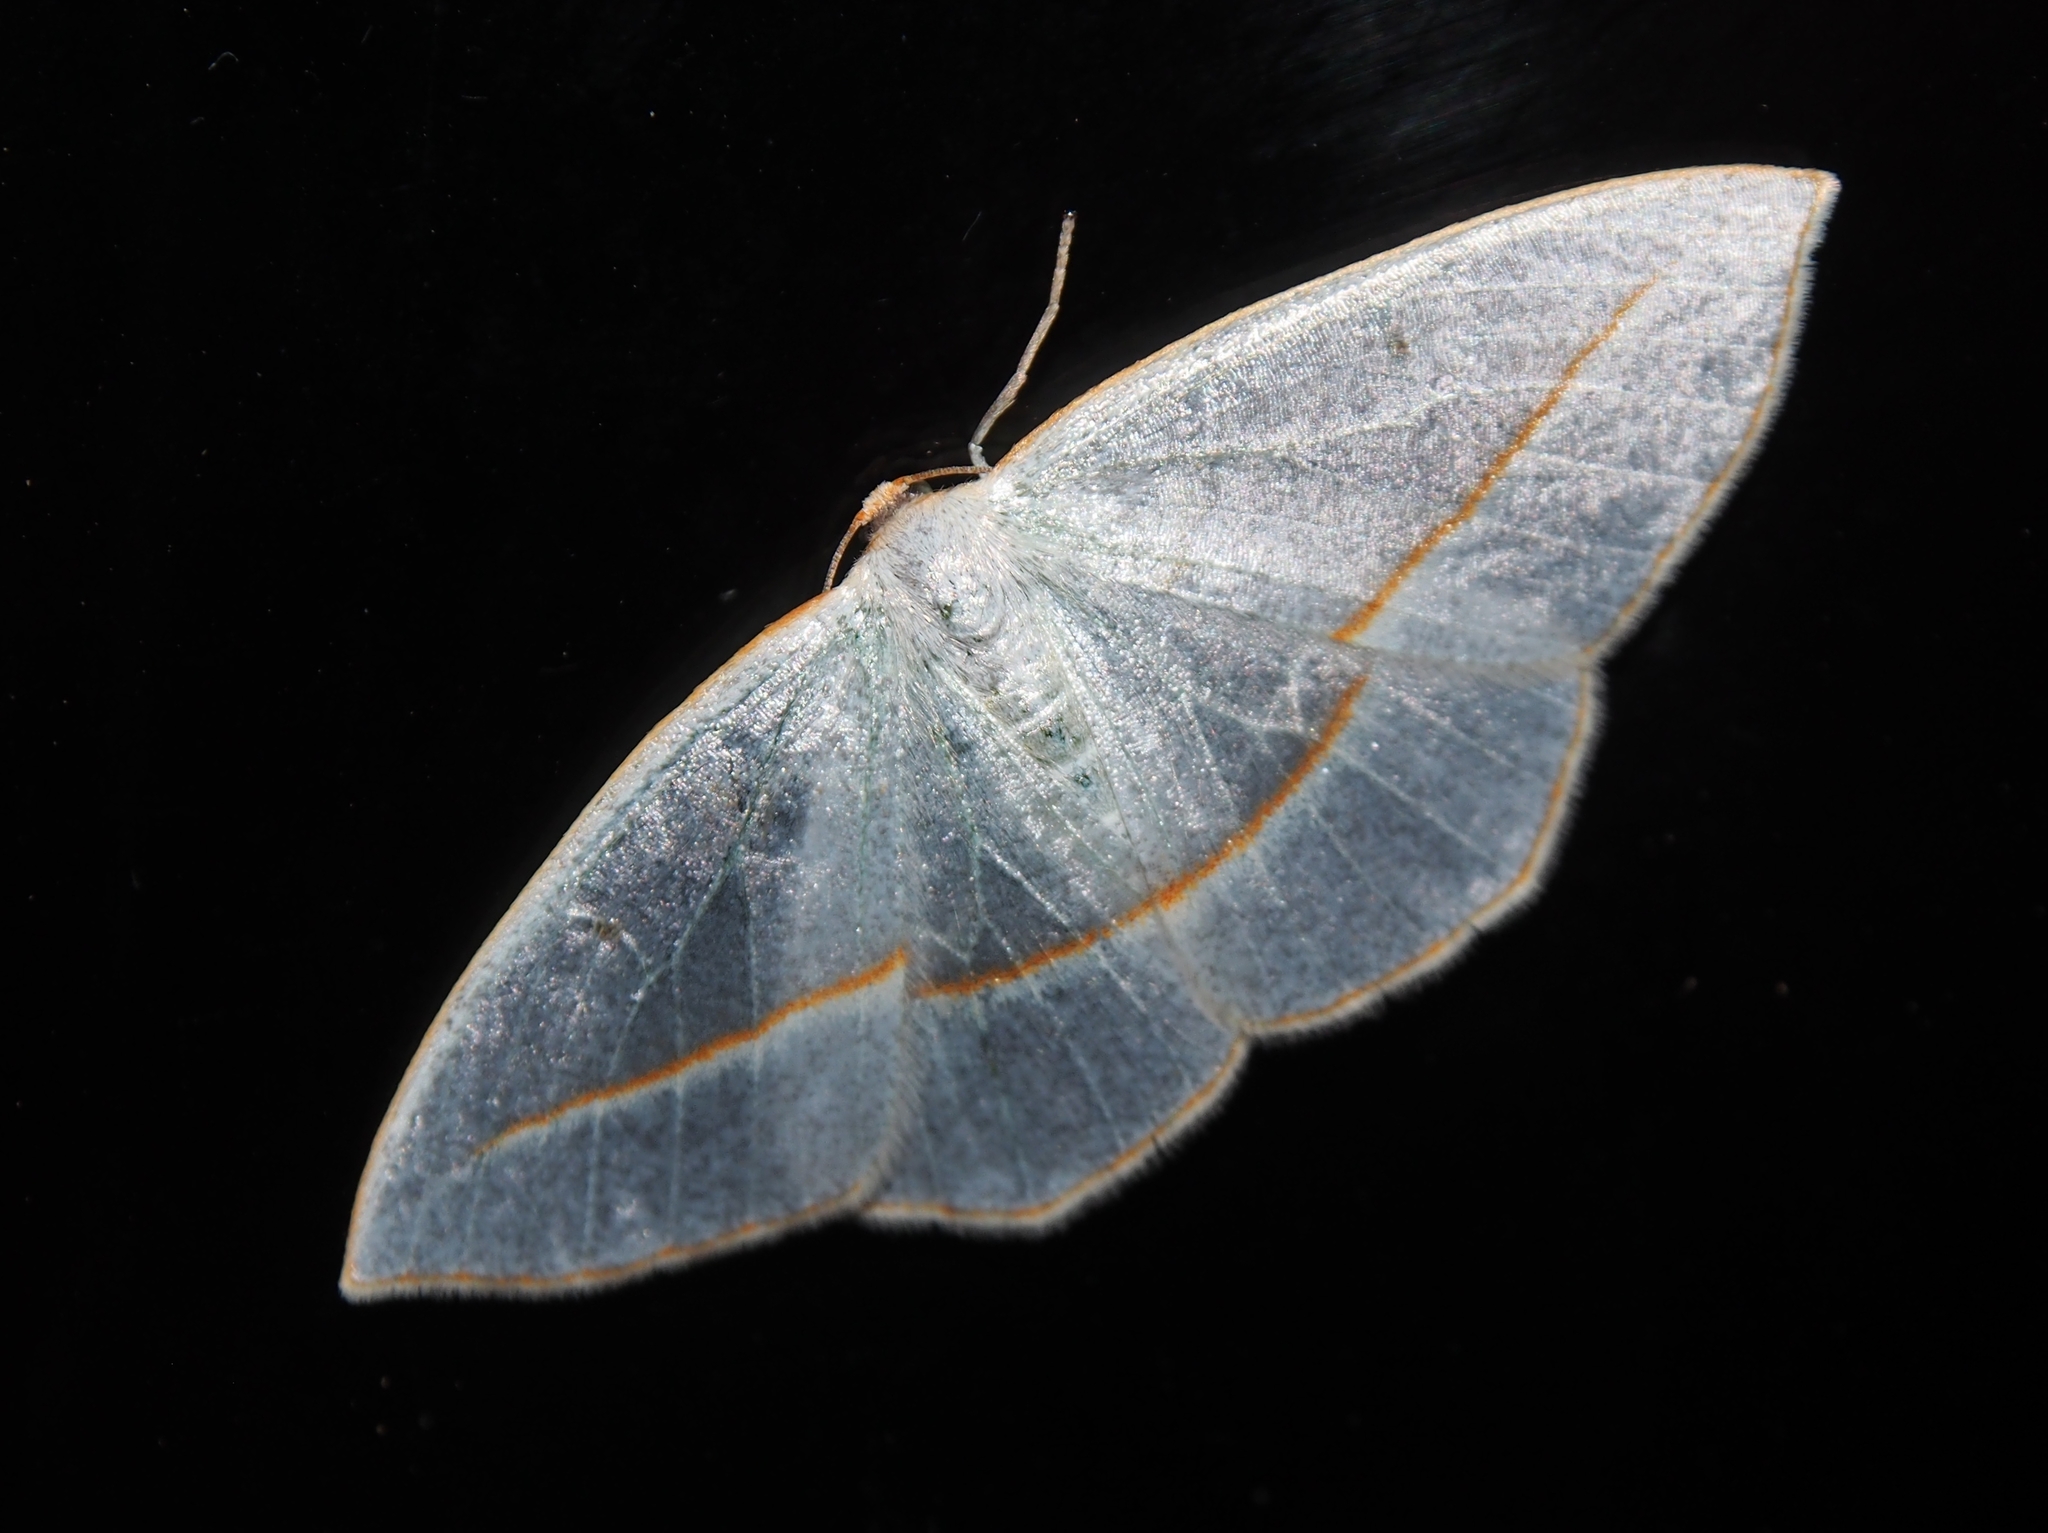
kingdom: Animalia
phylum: Arthropoda
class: Insecta
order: Lepidoptera
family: Geometridae
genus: Leuculopsis
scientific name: Leuculopsis unifasciata
